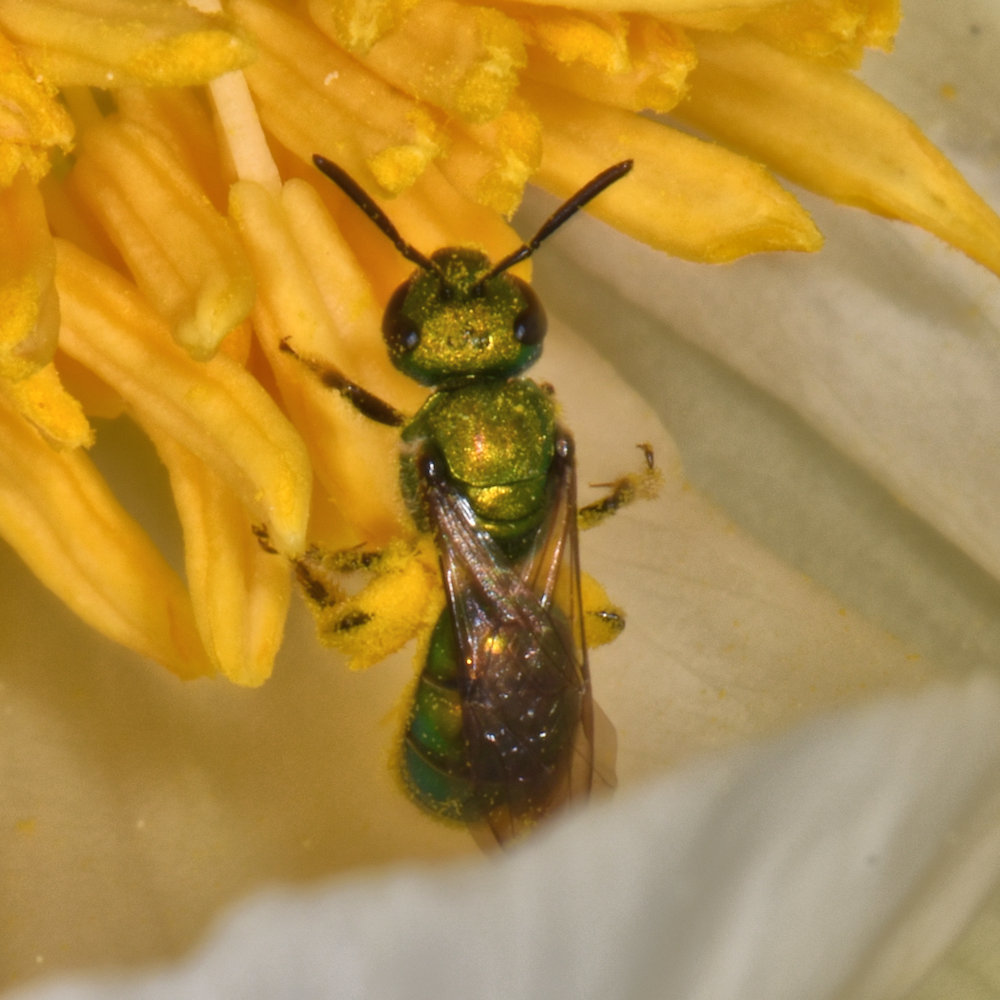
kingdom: Animalia
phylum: Arthropoda
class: Insecta
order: Hymenoptera
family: Halictidae
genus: Augochlora
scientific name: Augochlora pura
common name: Pure green sweat bee
